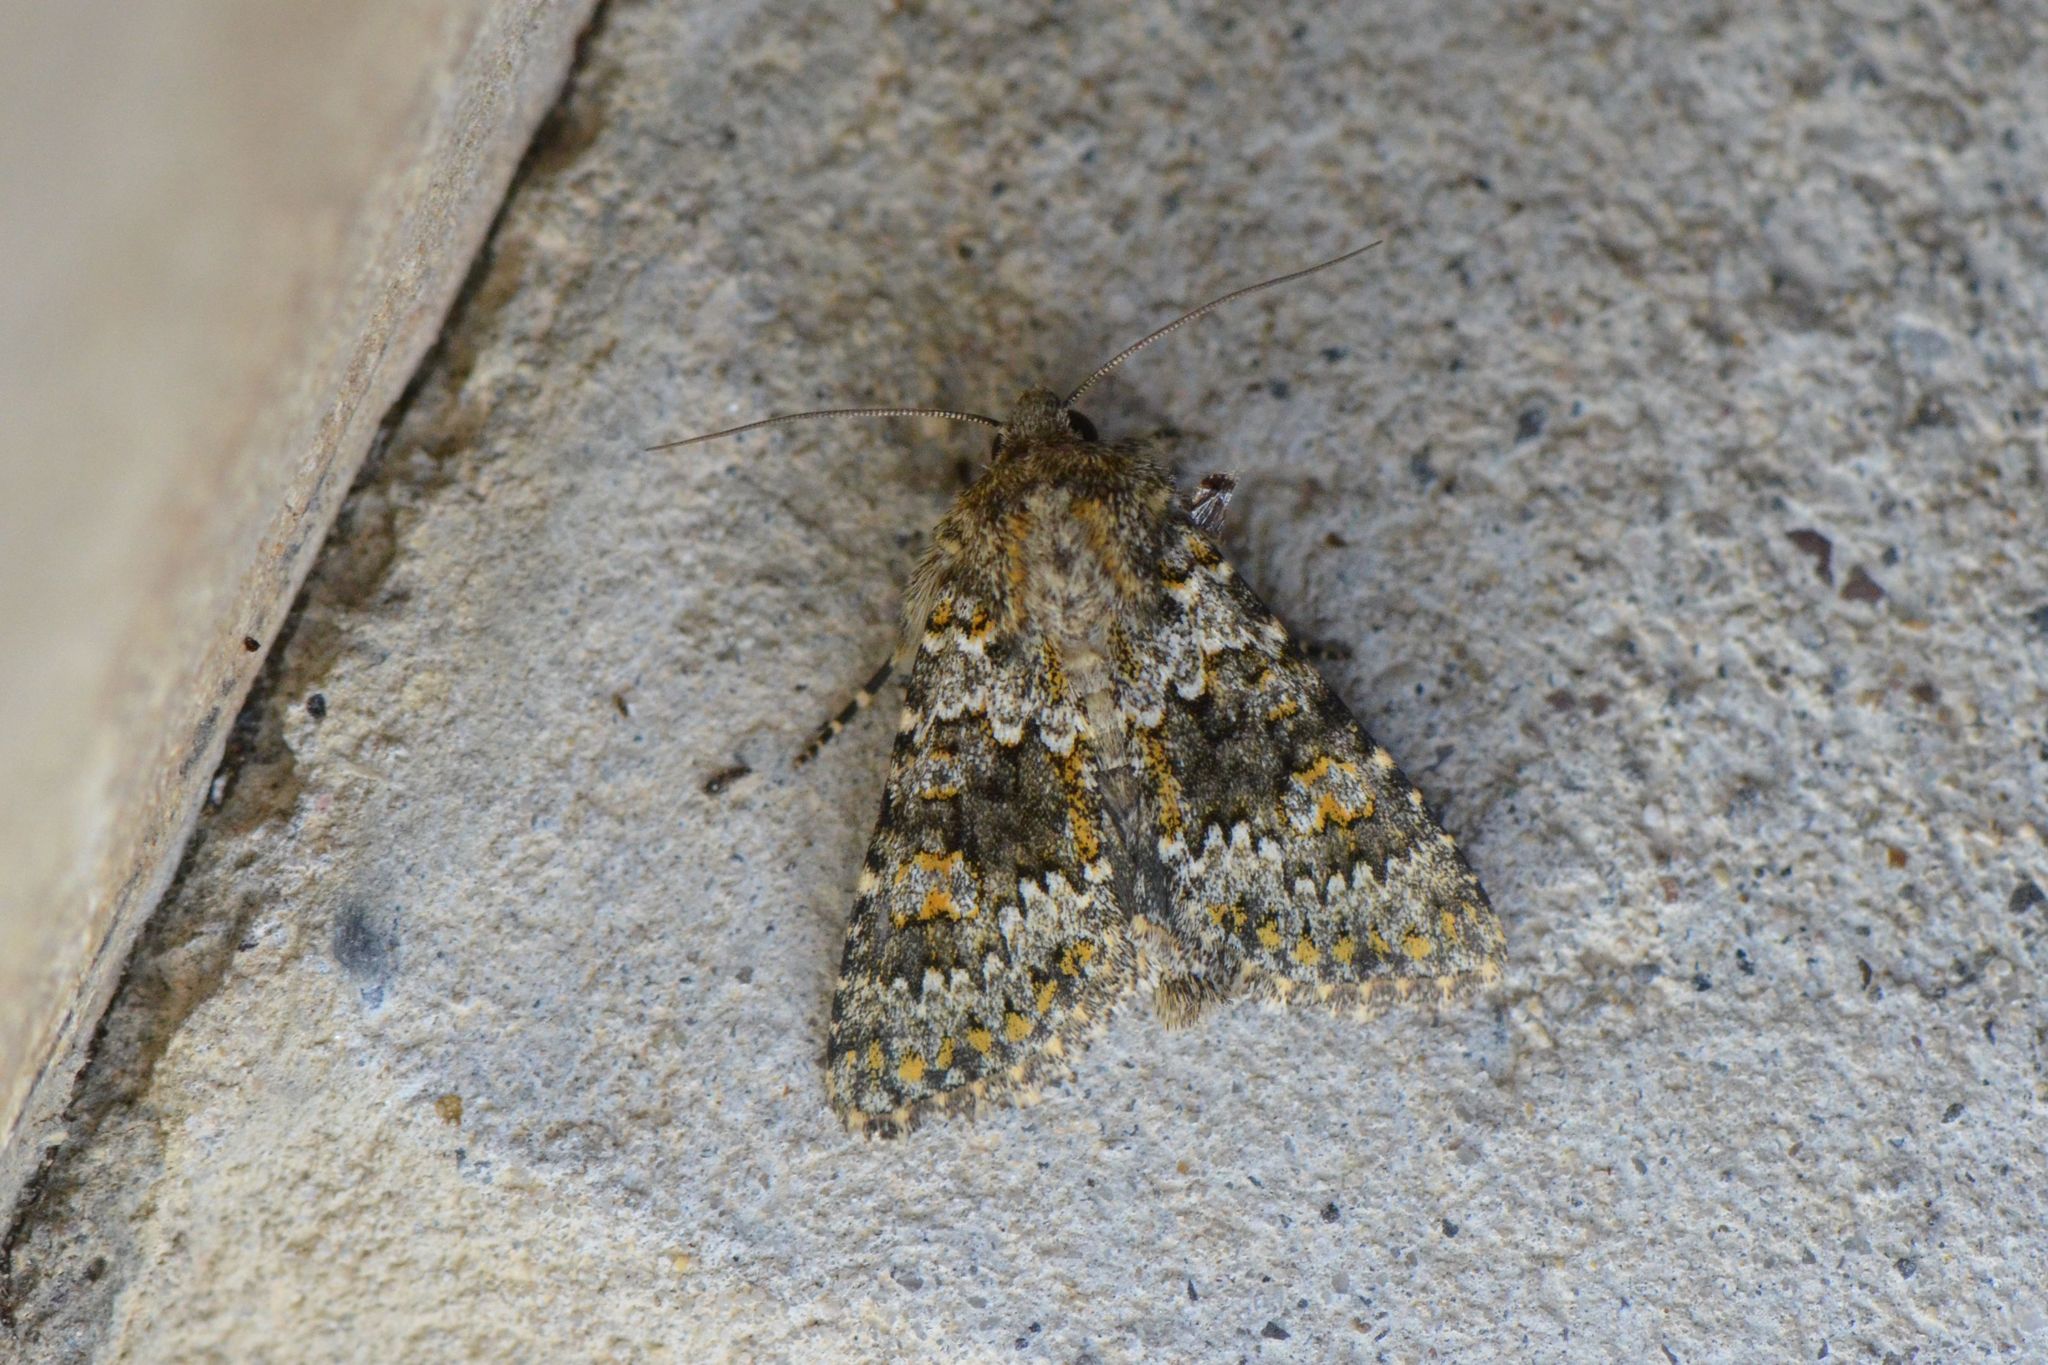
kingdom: Animalia
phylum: Arthropoda
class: Insecta
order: Lepidoptera
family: Noctuidae
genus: Hecatera
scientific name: Hecatera dysodea
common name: Small ranunculus
